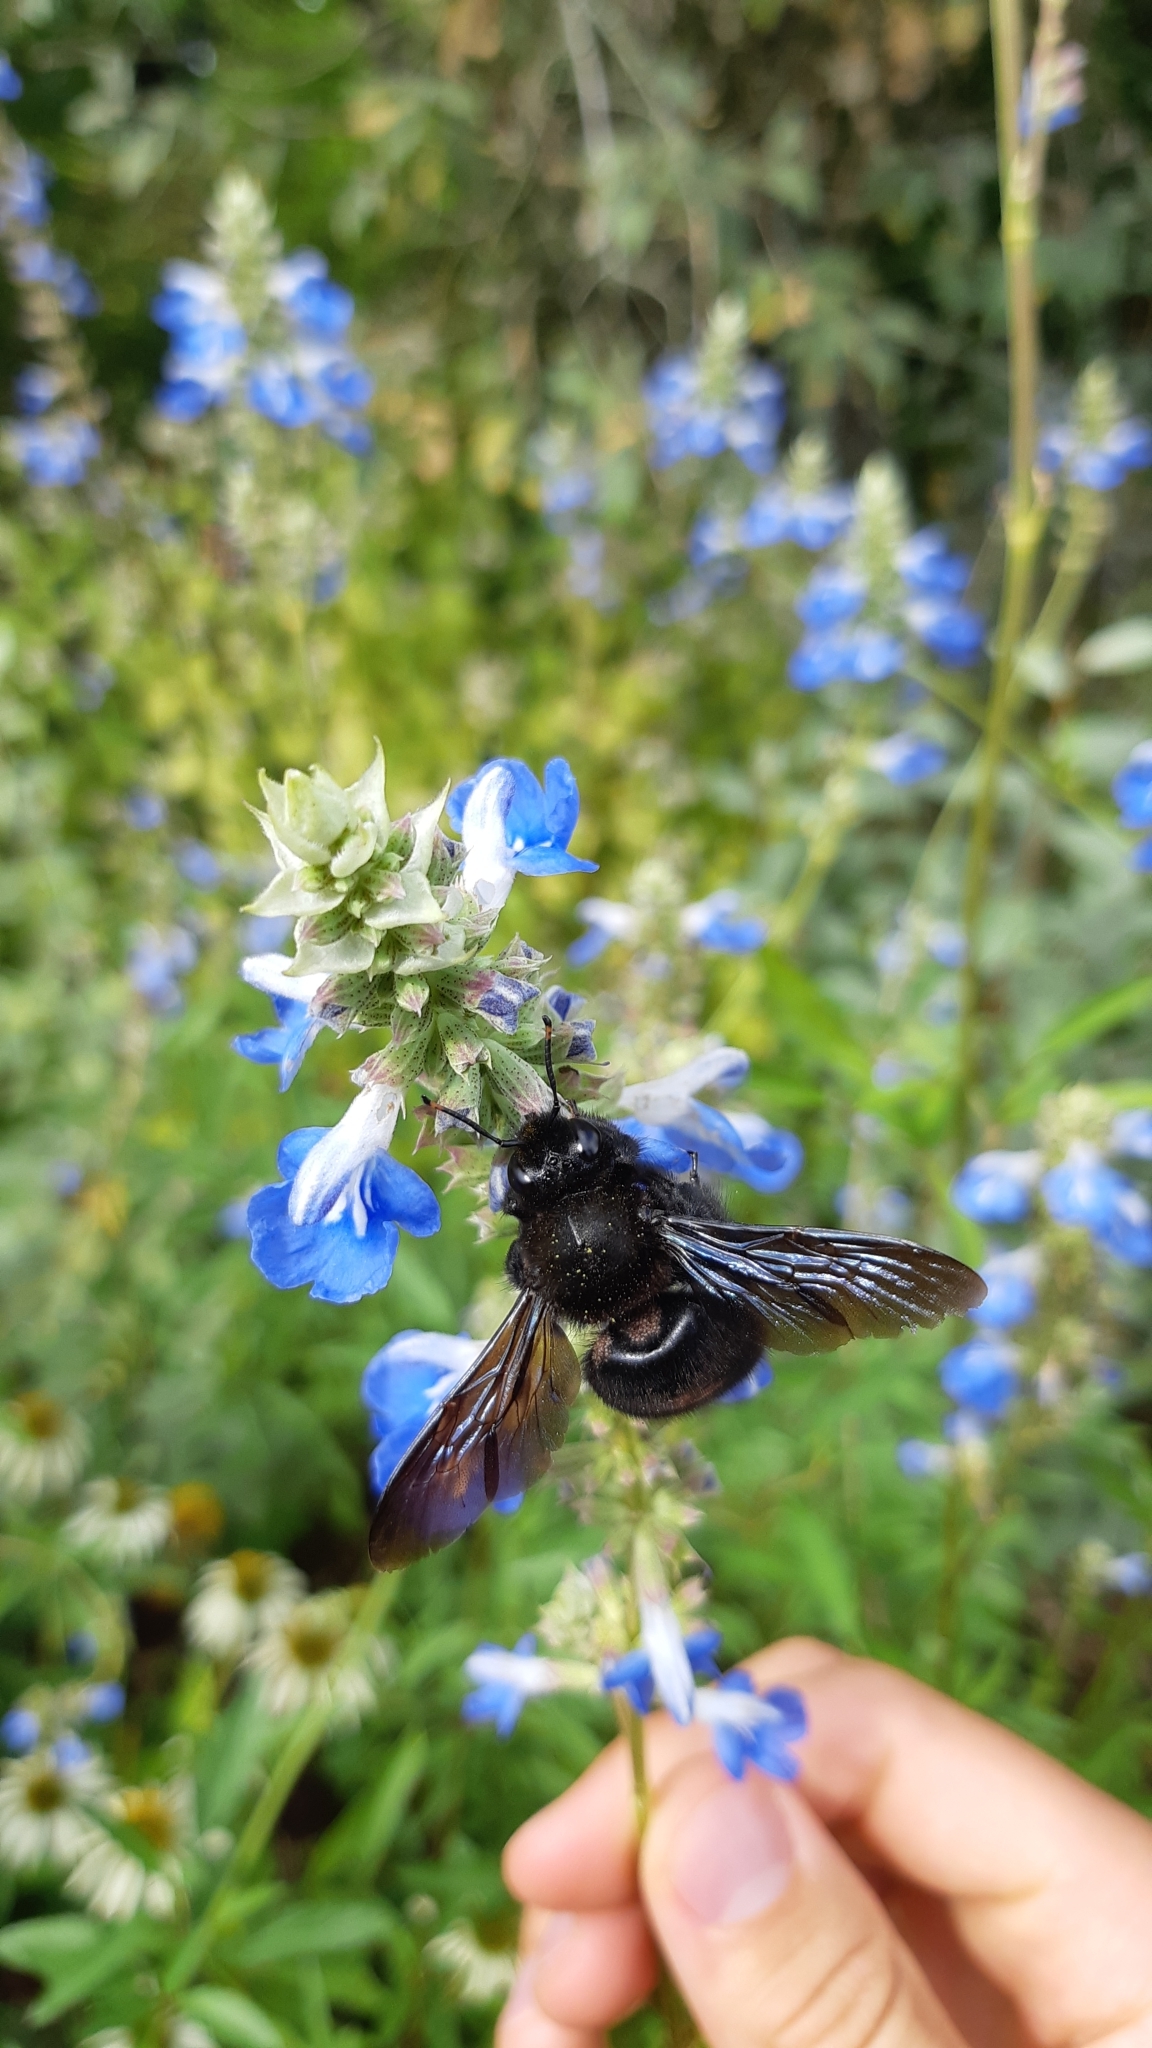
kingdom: Animalia
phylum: Arthropoda
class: Insecta
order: Hymenoptera
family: Apidae
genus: Xylocopa
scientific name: Xylocopa violacea
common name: Violet carpenter bee
